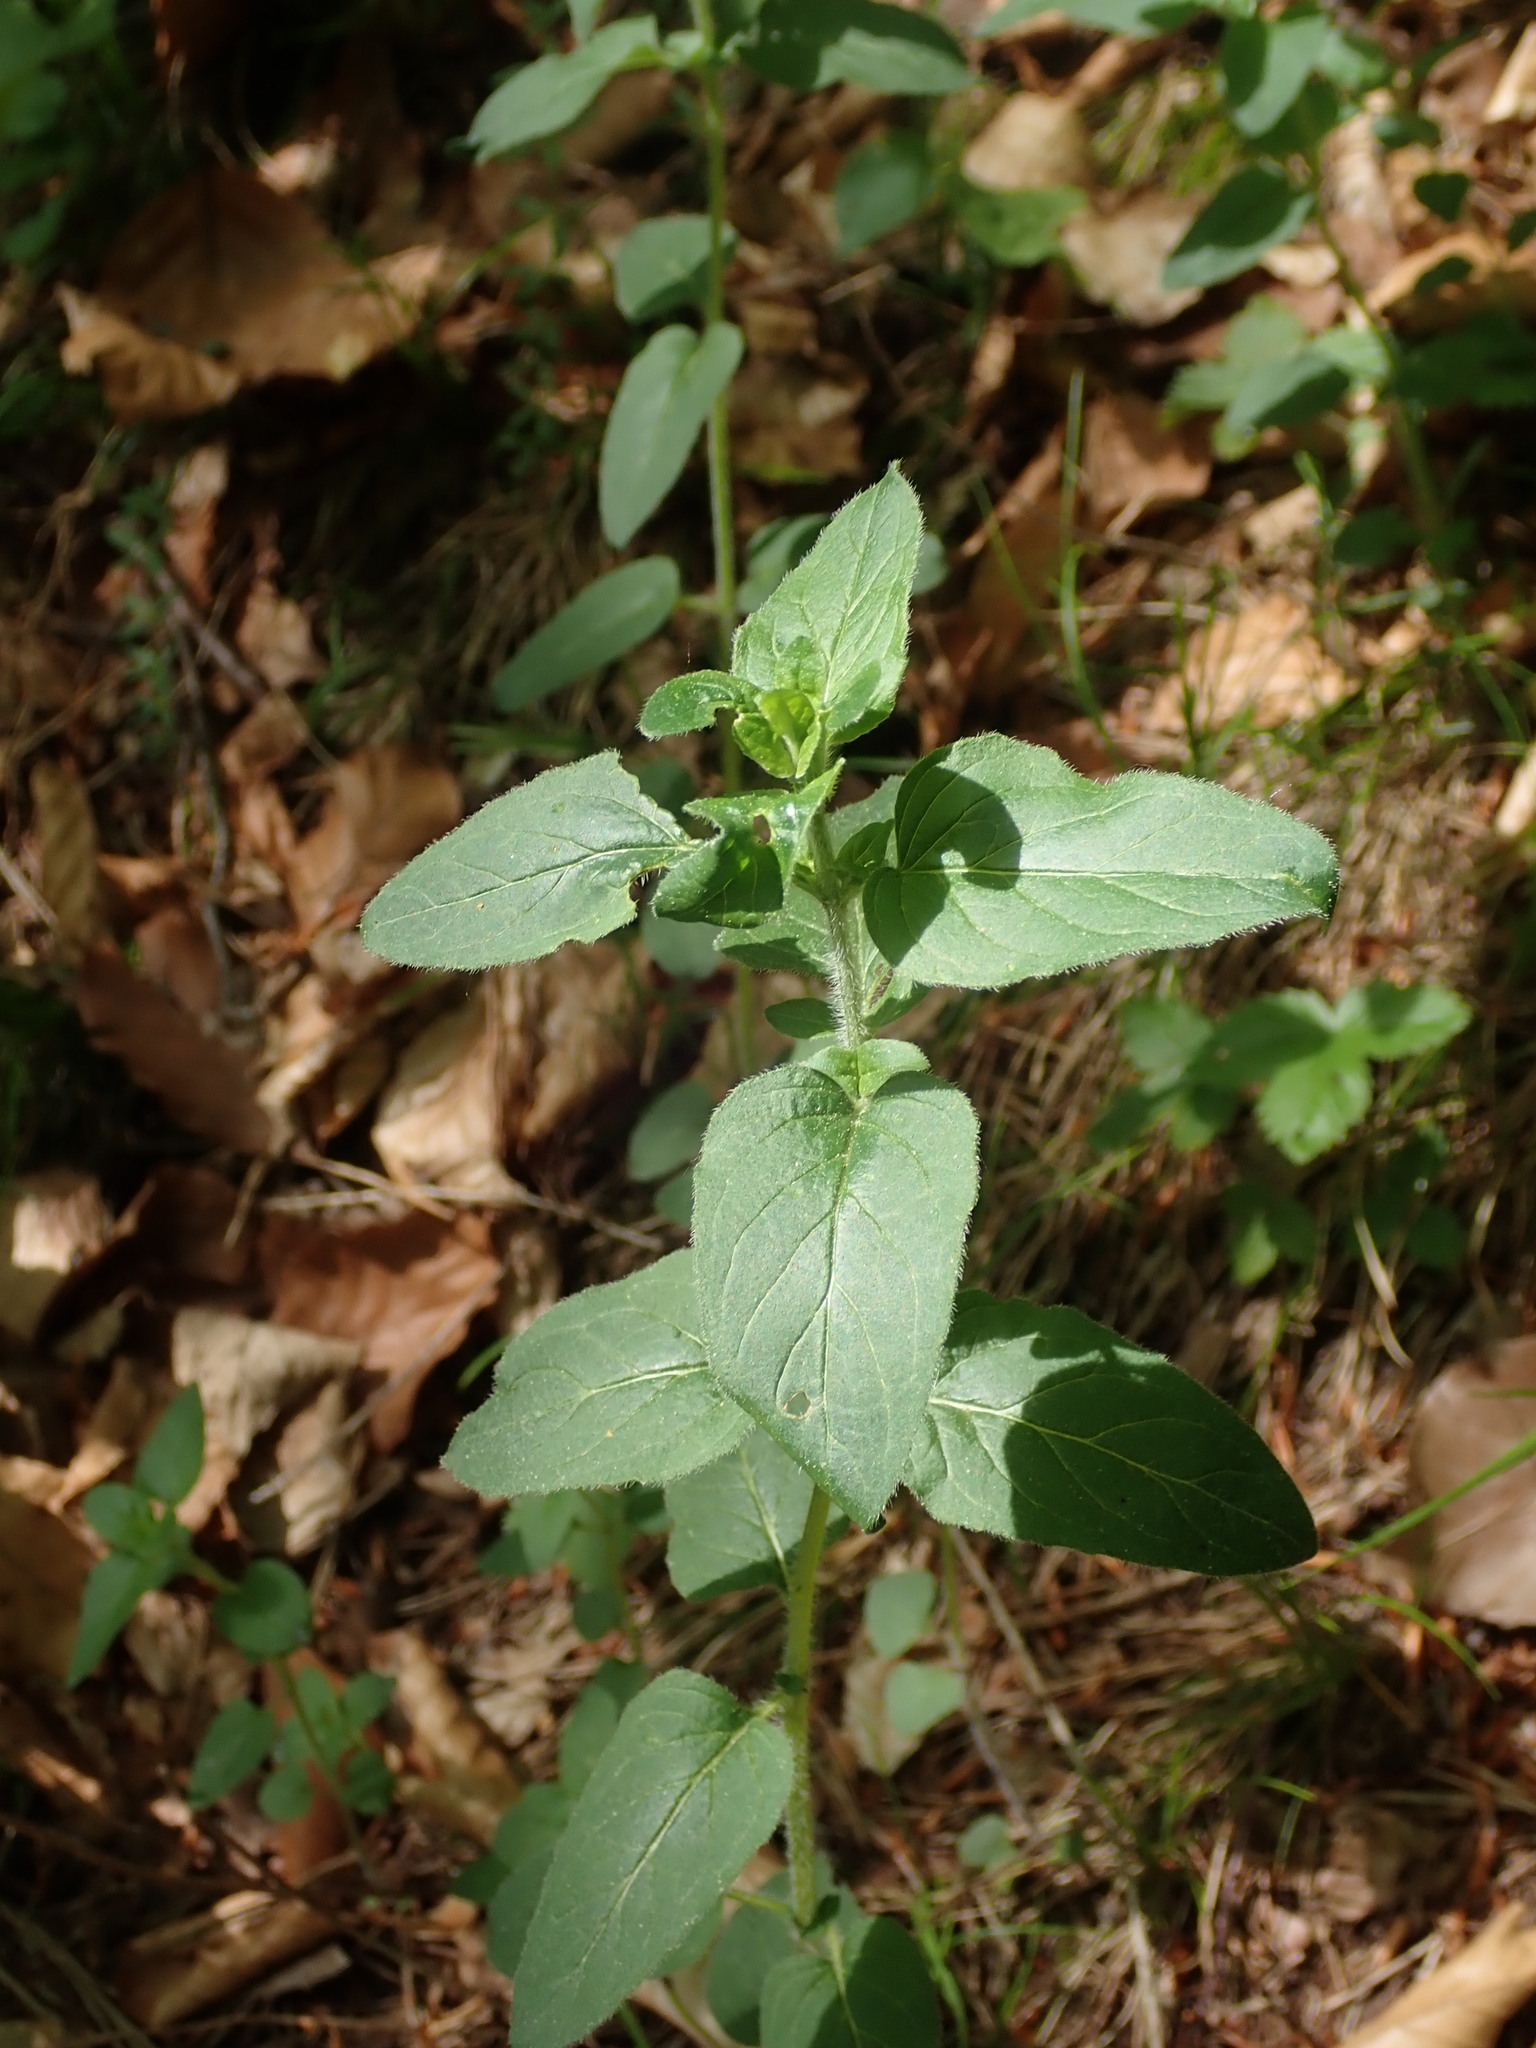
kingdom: Plantae
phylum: Tracheophyta
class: Magnoliopsida
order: Lamiales
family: Lamiaceae
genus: Origanum
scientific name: Origanum vulgare
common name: Wild marjoram
